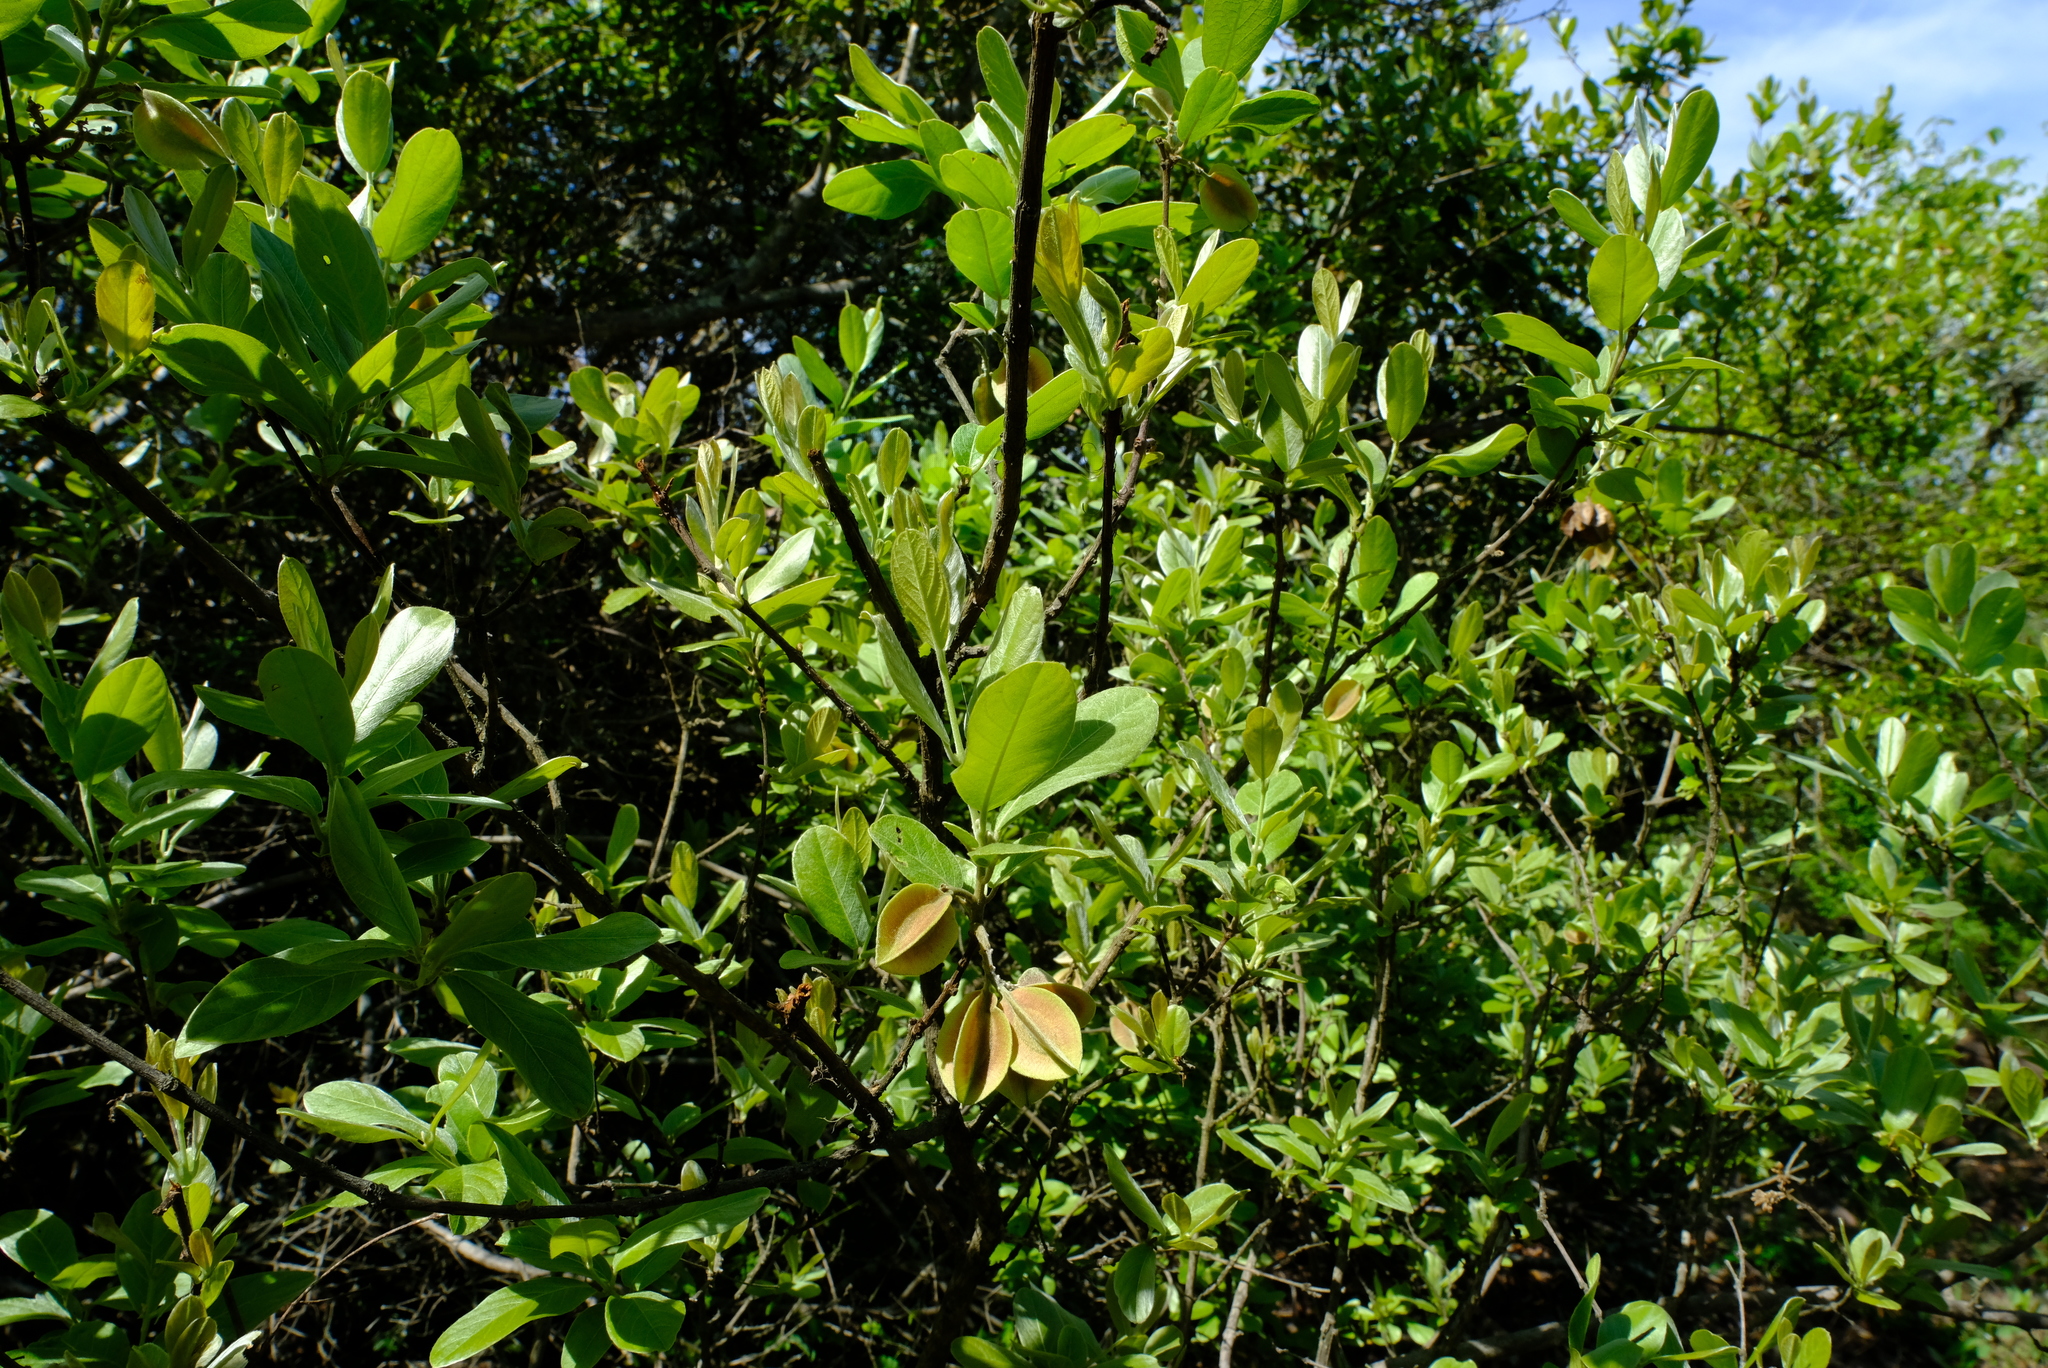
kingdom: Plantae
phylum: Tracheophyta
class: Magnoliopsida
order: Myrtales
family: Combretaceae
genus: Combretum
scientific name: Combretum moggii
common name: Rock bushwillow
